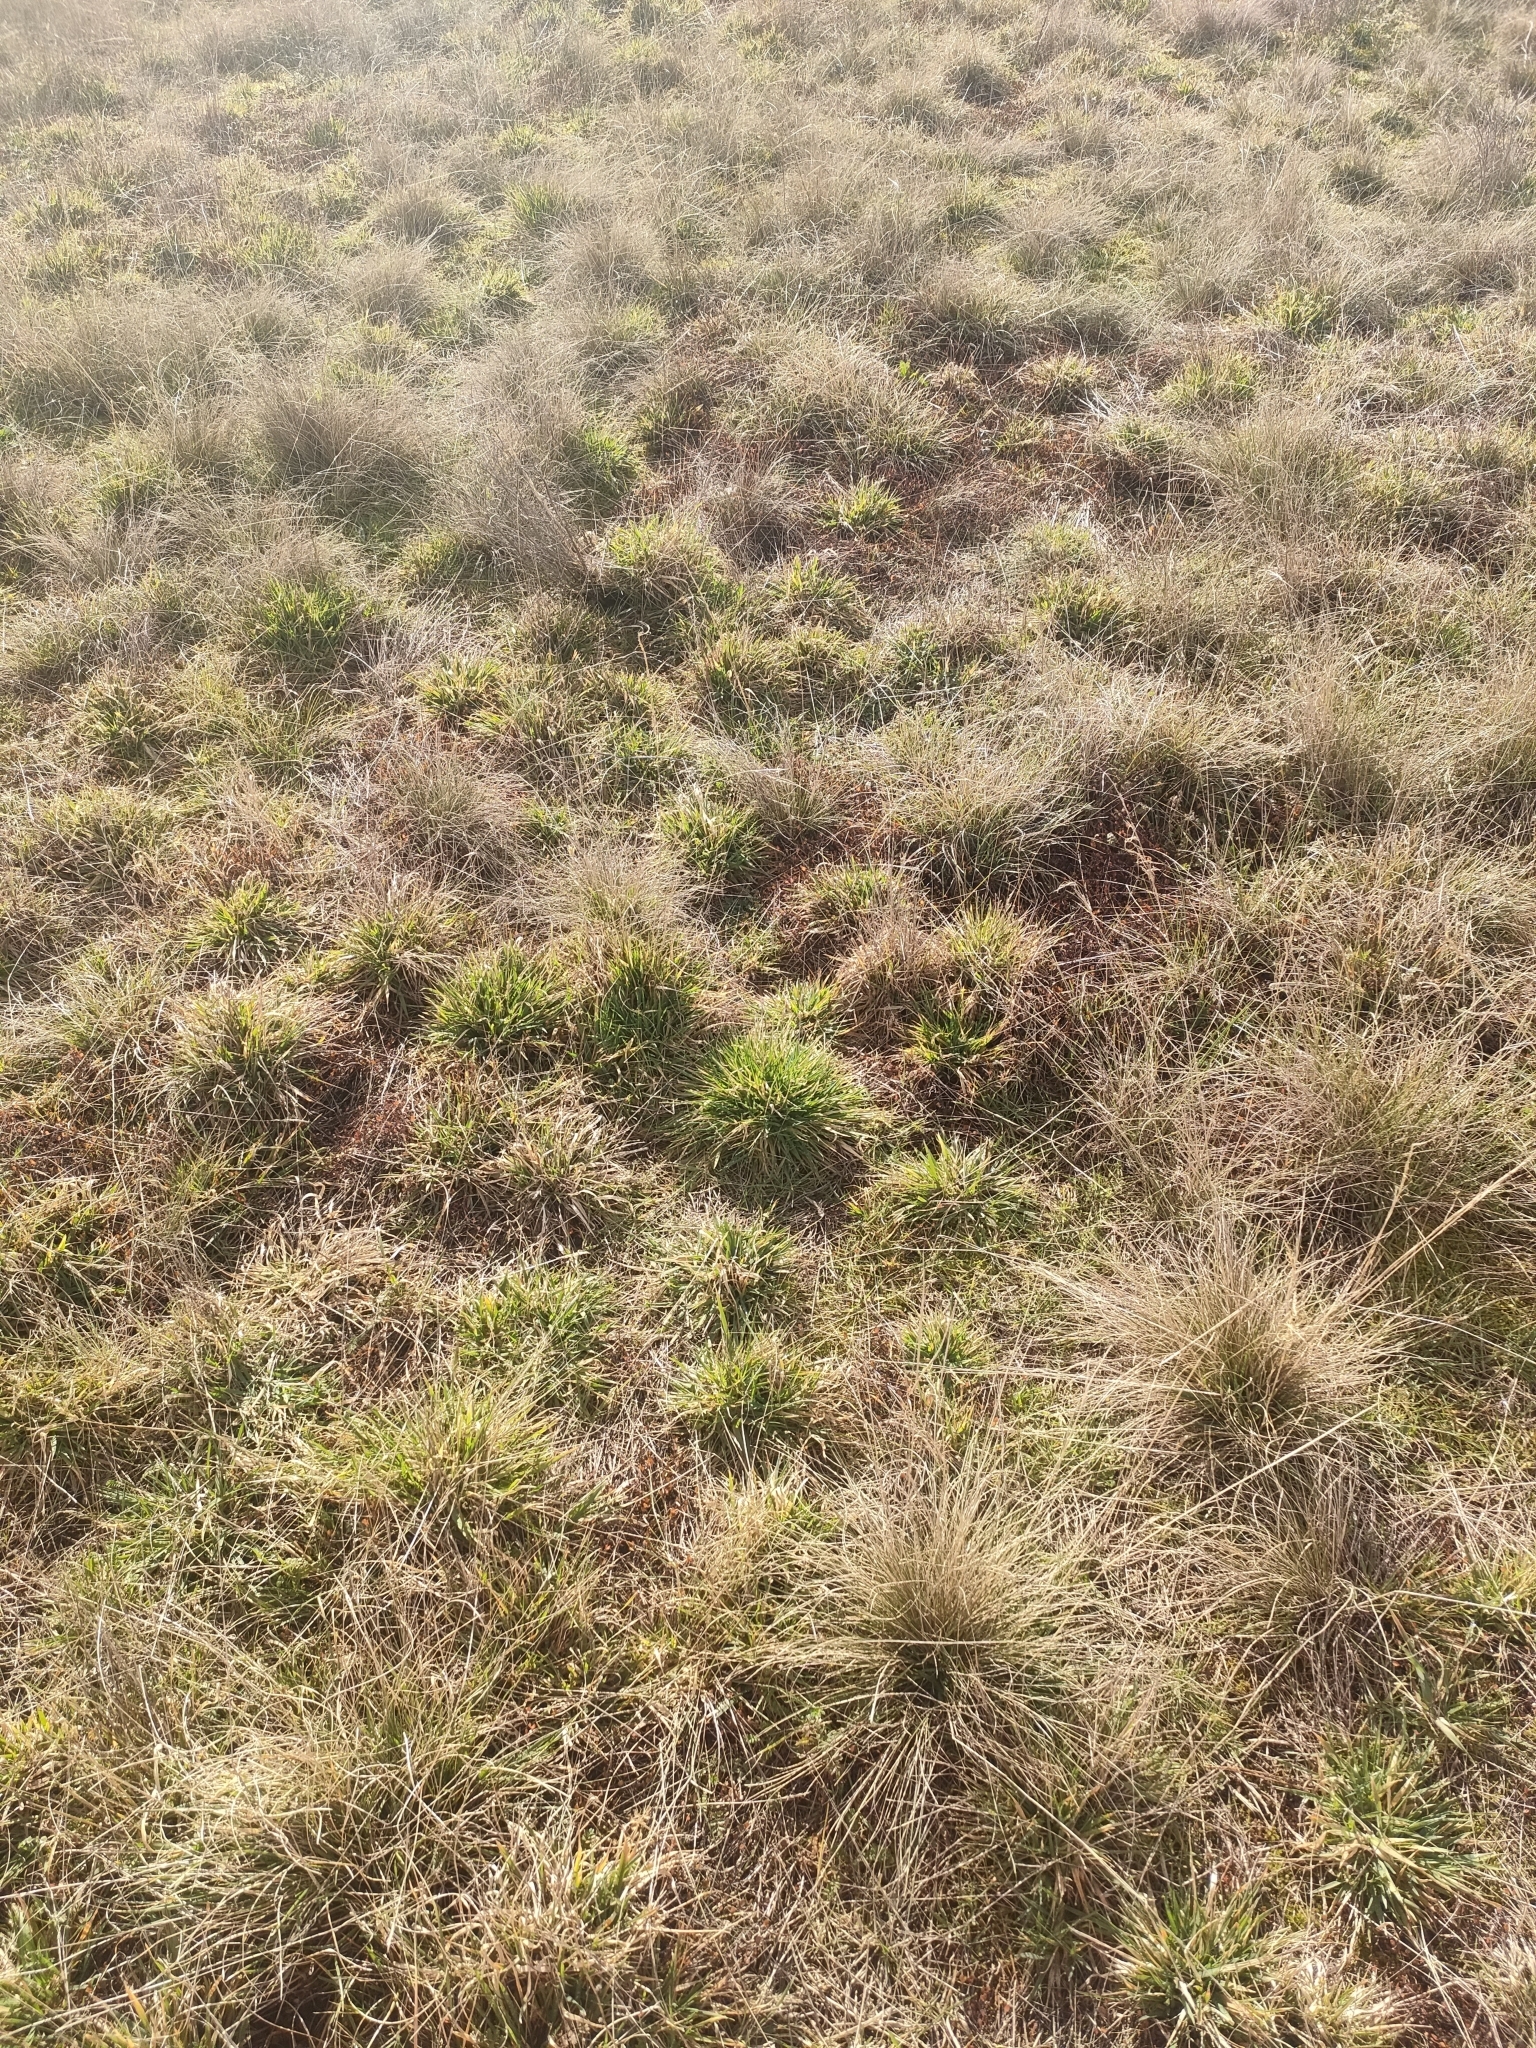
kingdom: Plantae
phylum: Tracheophyta
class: Magnoliopsida
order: Caryophyllales
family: Polygonaceae
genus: Muehlenbeckia
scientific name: Muehlenbeckia axillaris
